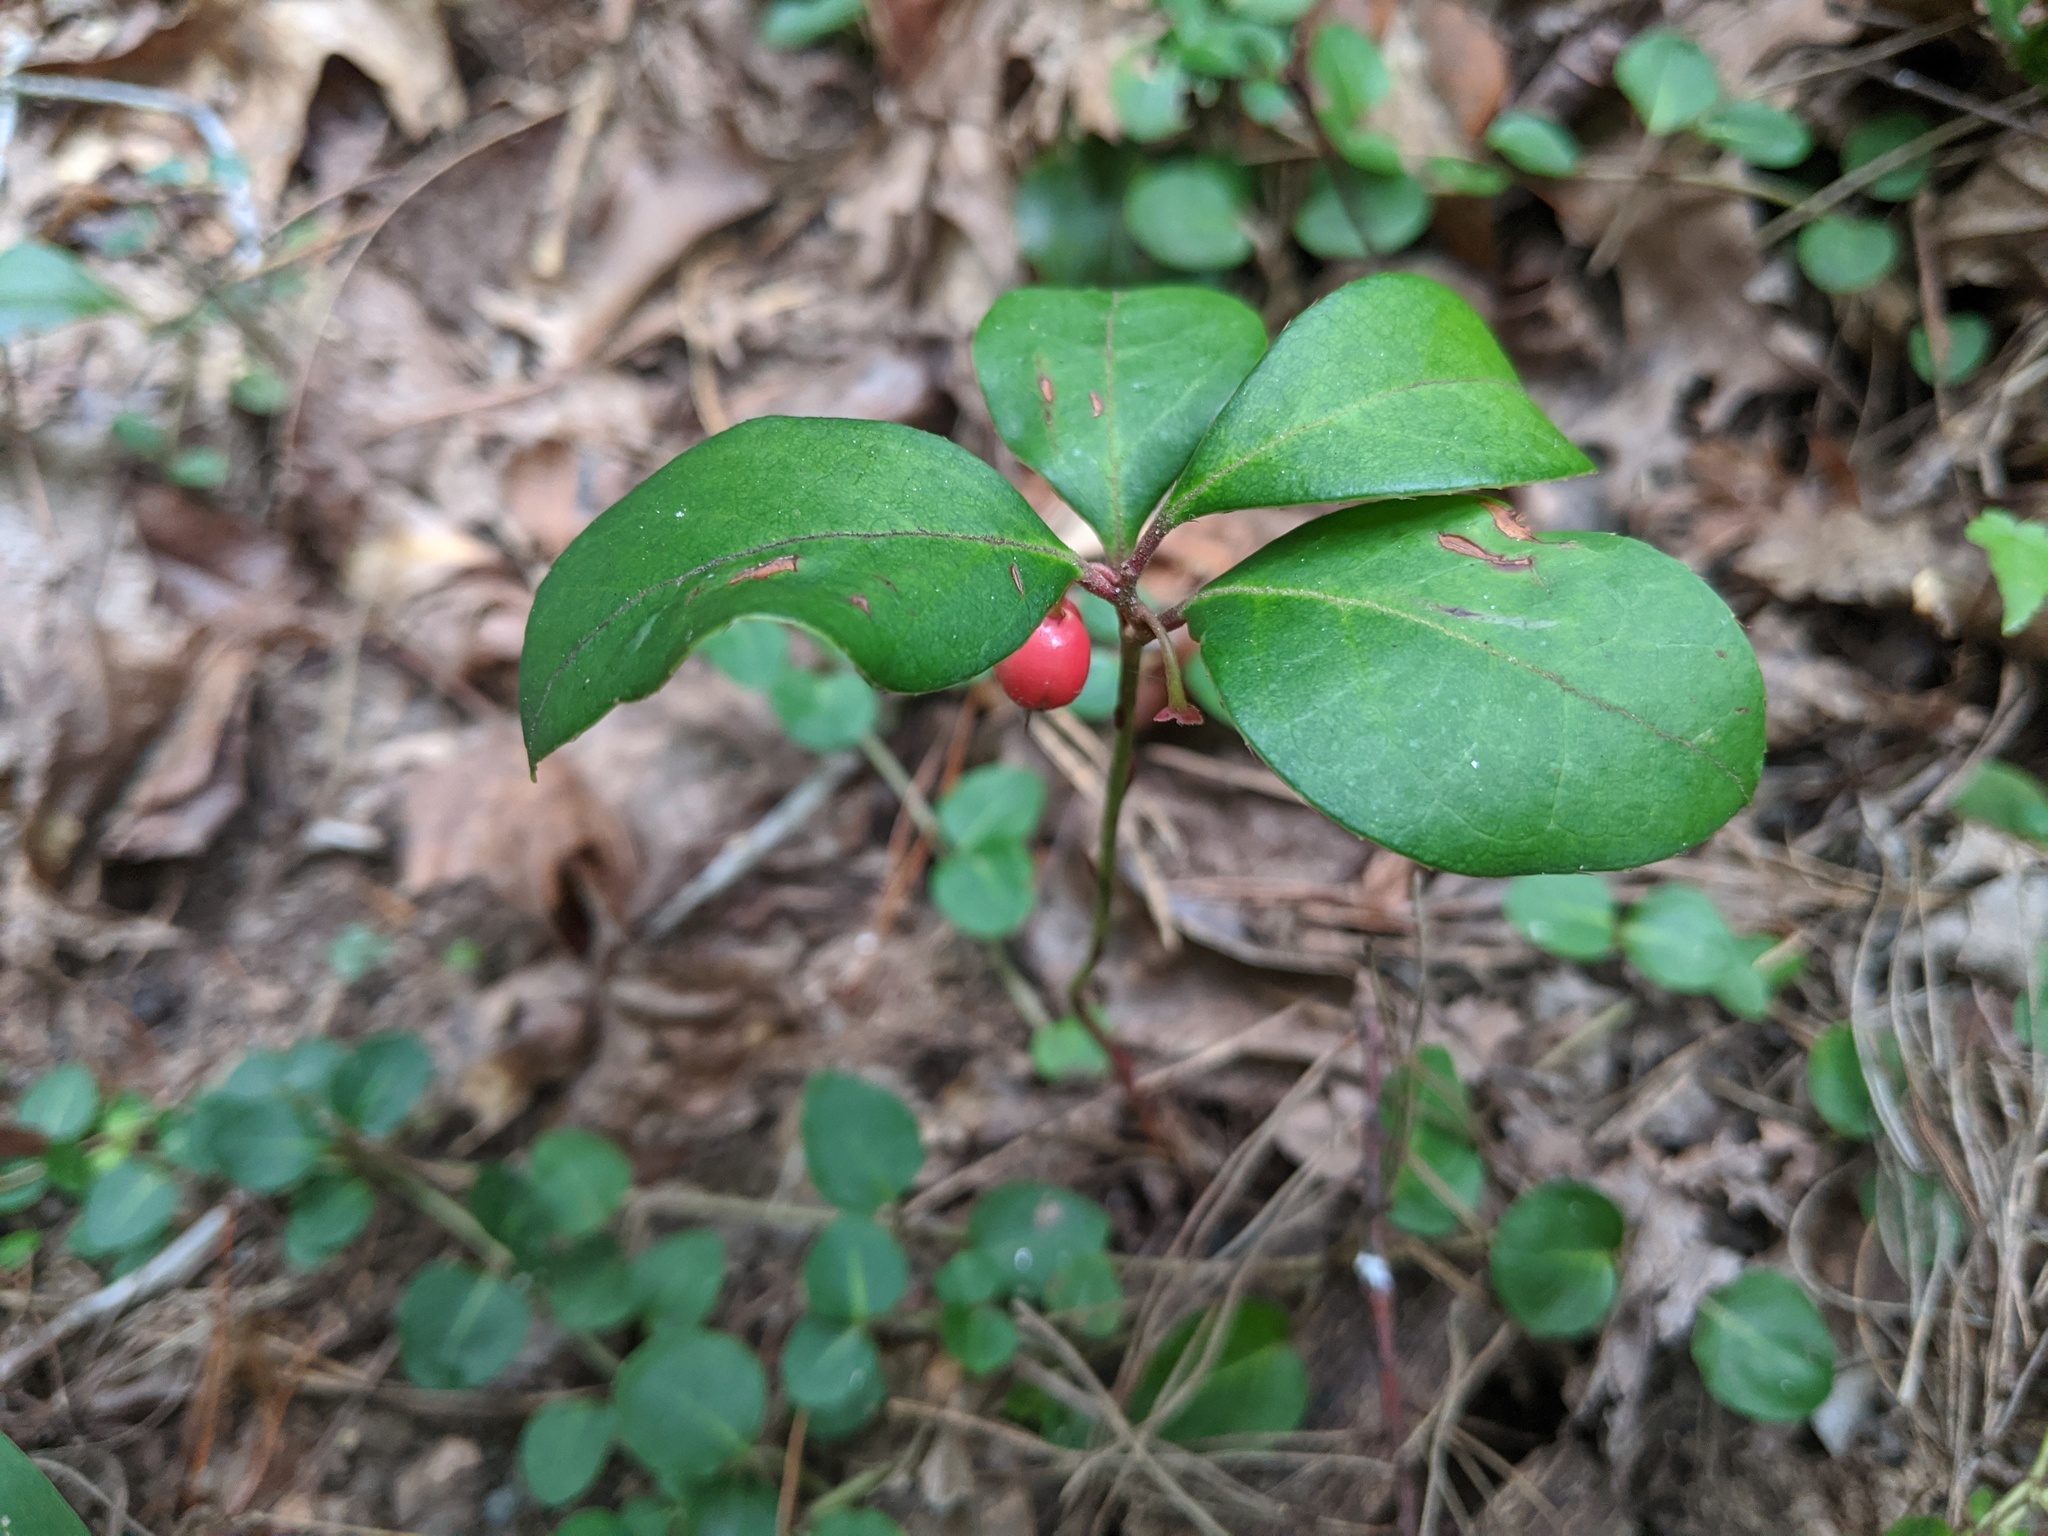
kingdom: Plantae
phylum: Tracheophyta
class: Magnoliopsida
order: Ericales
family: Ericaceae
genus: Gaultheria
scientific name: Gaultheria procumbens
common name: Checkerberry
